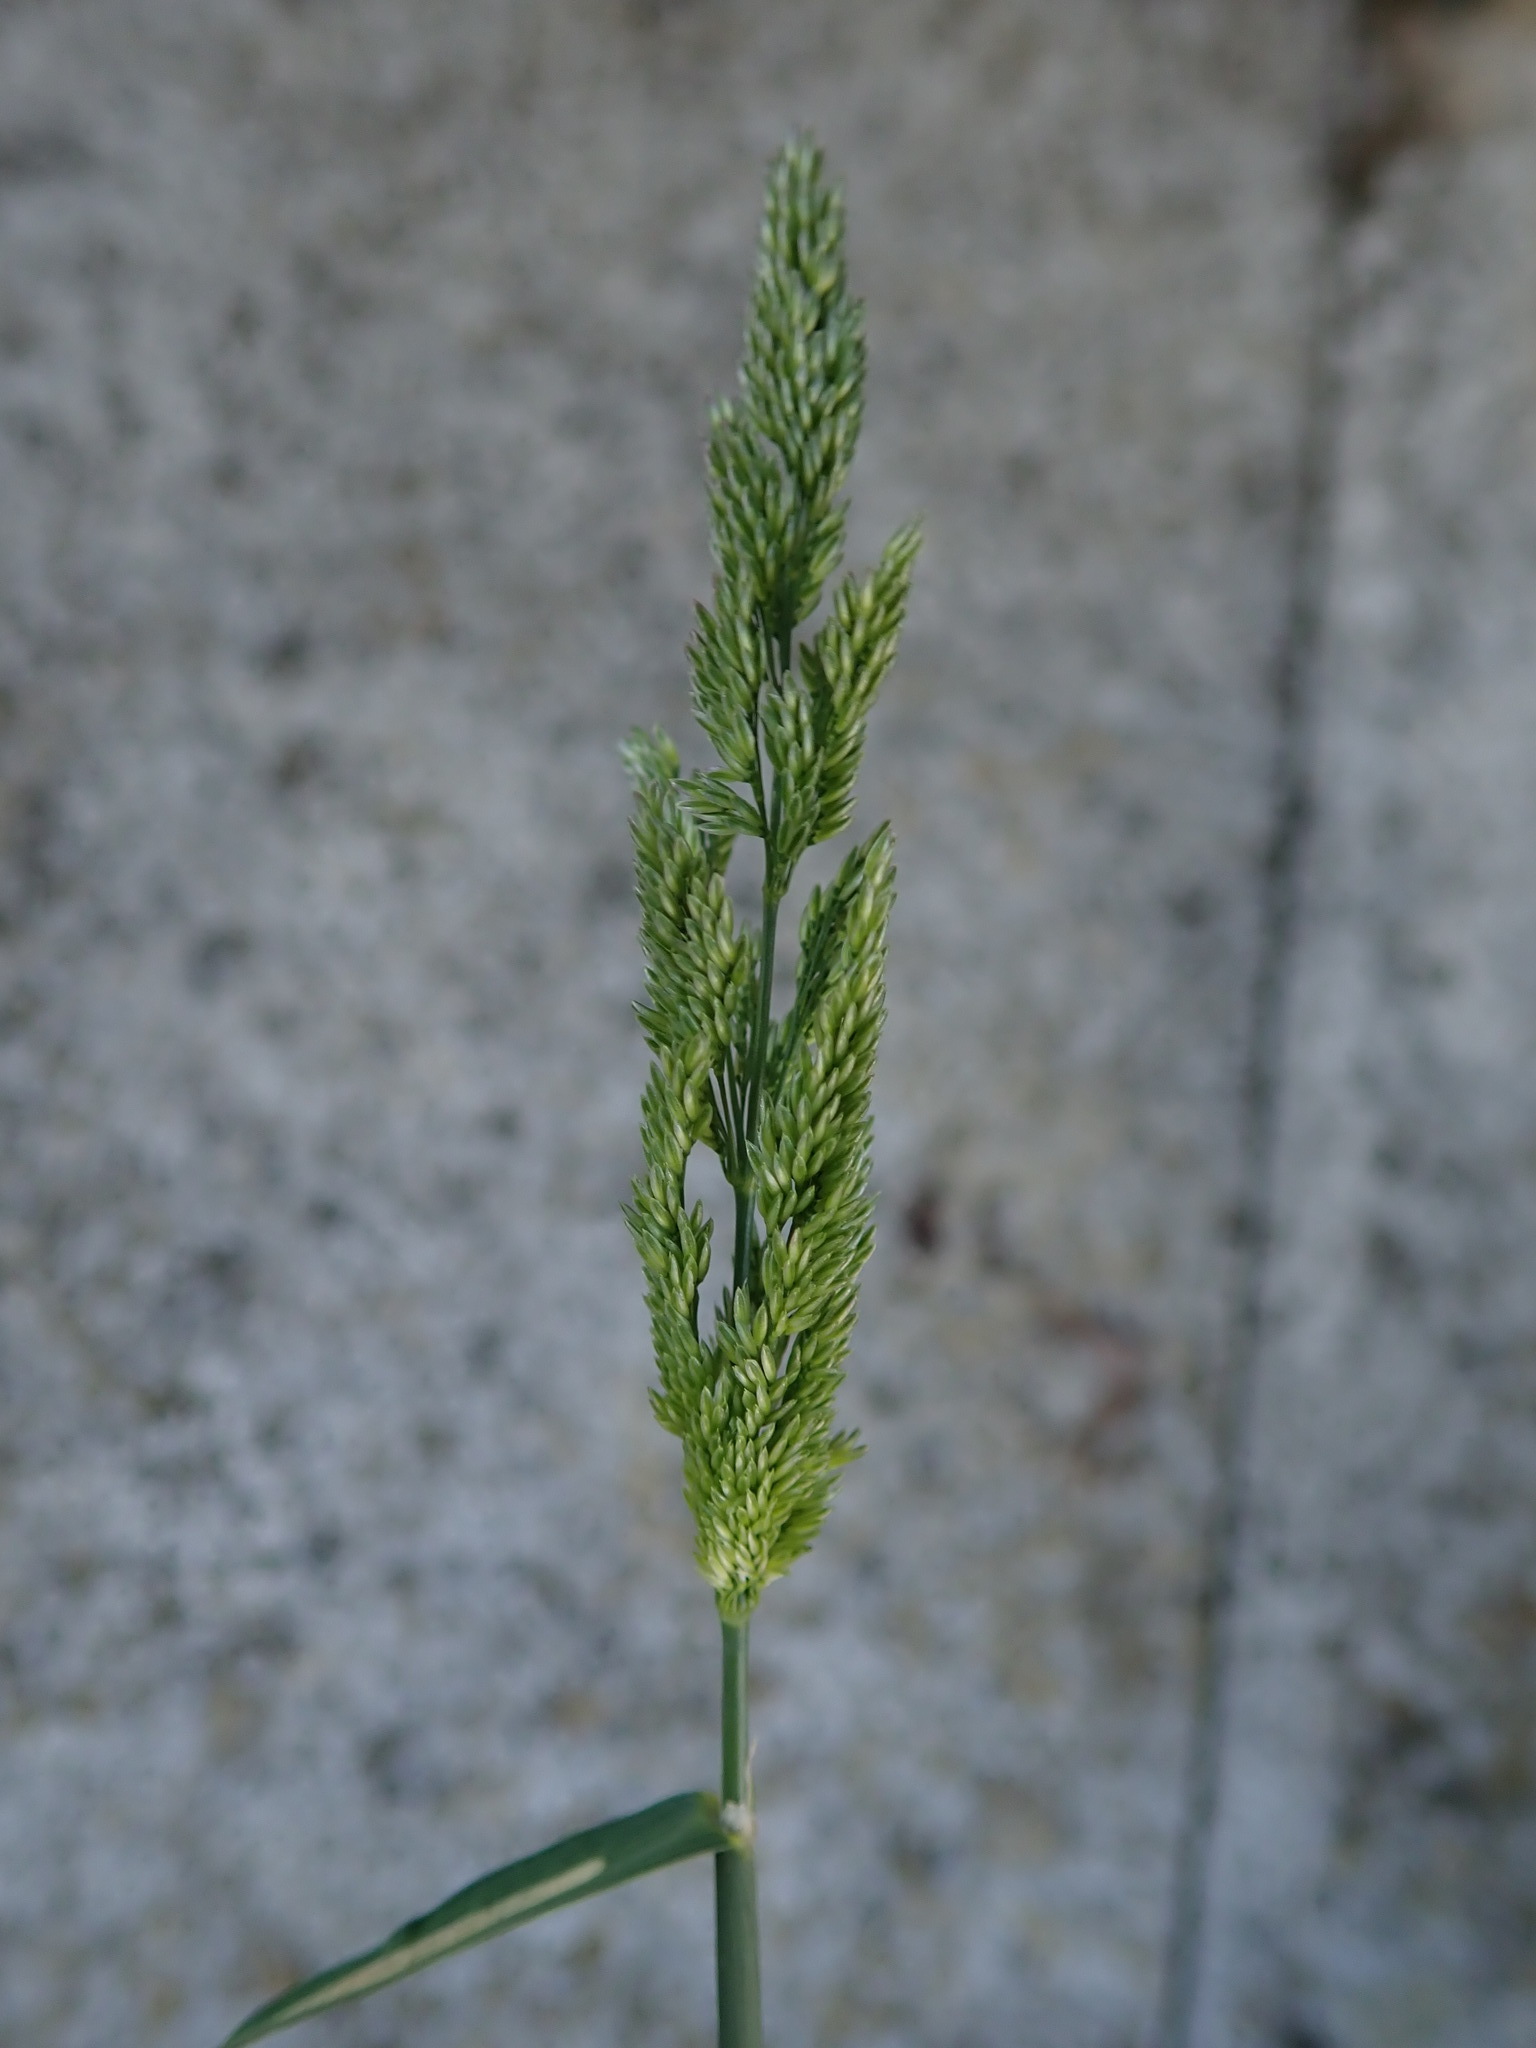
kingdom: Plantae
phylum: Tracheophyta
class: Liliopsida
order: Poales
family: Poaceae
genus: Polypogon
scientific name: Polypogon viridis
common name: Water bent
